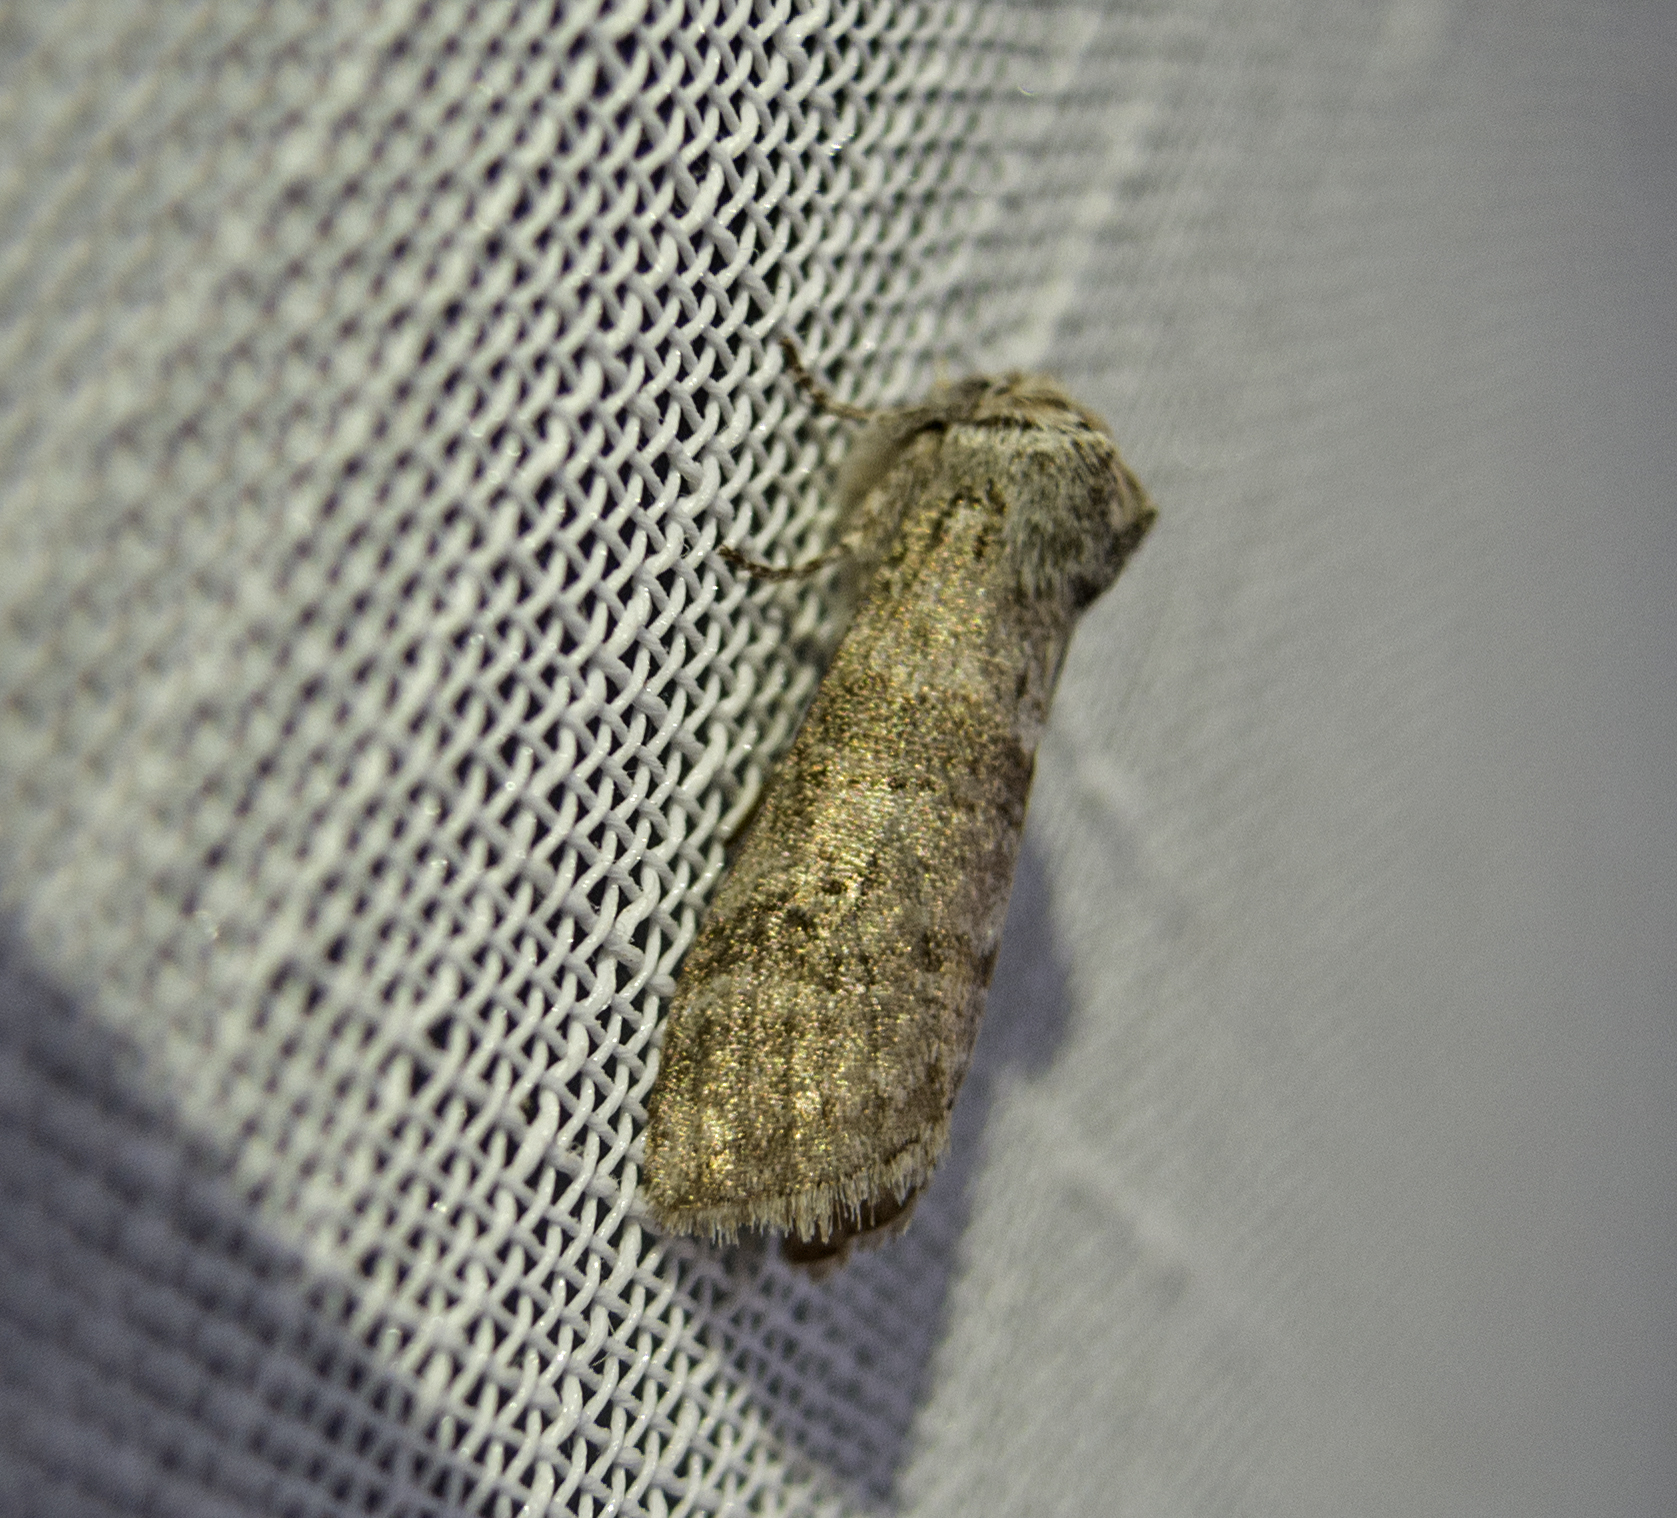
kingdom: Animalia
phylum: Arthropoda
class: Insecta
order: Lepidoptera
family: Drepanidae
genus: Polyploca
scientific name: Polyploca ruficollis
